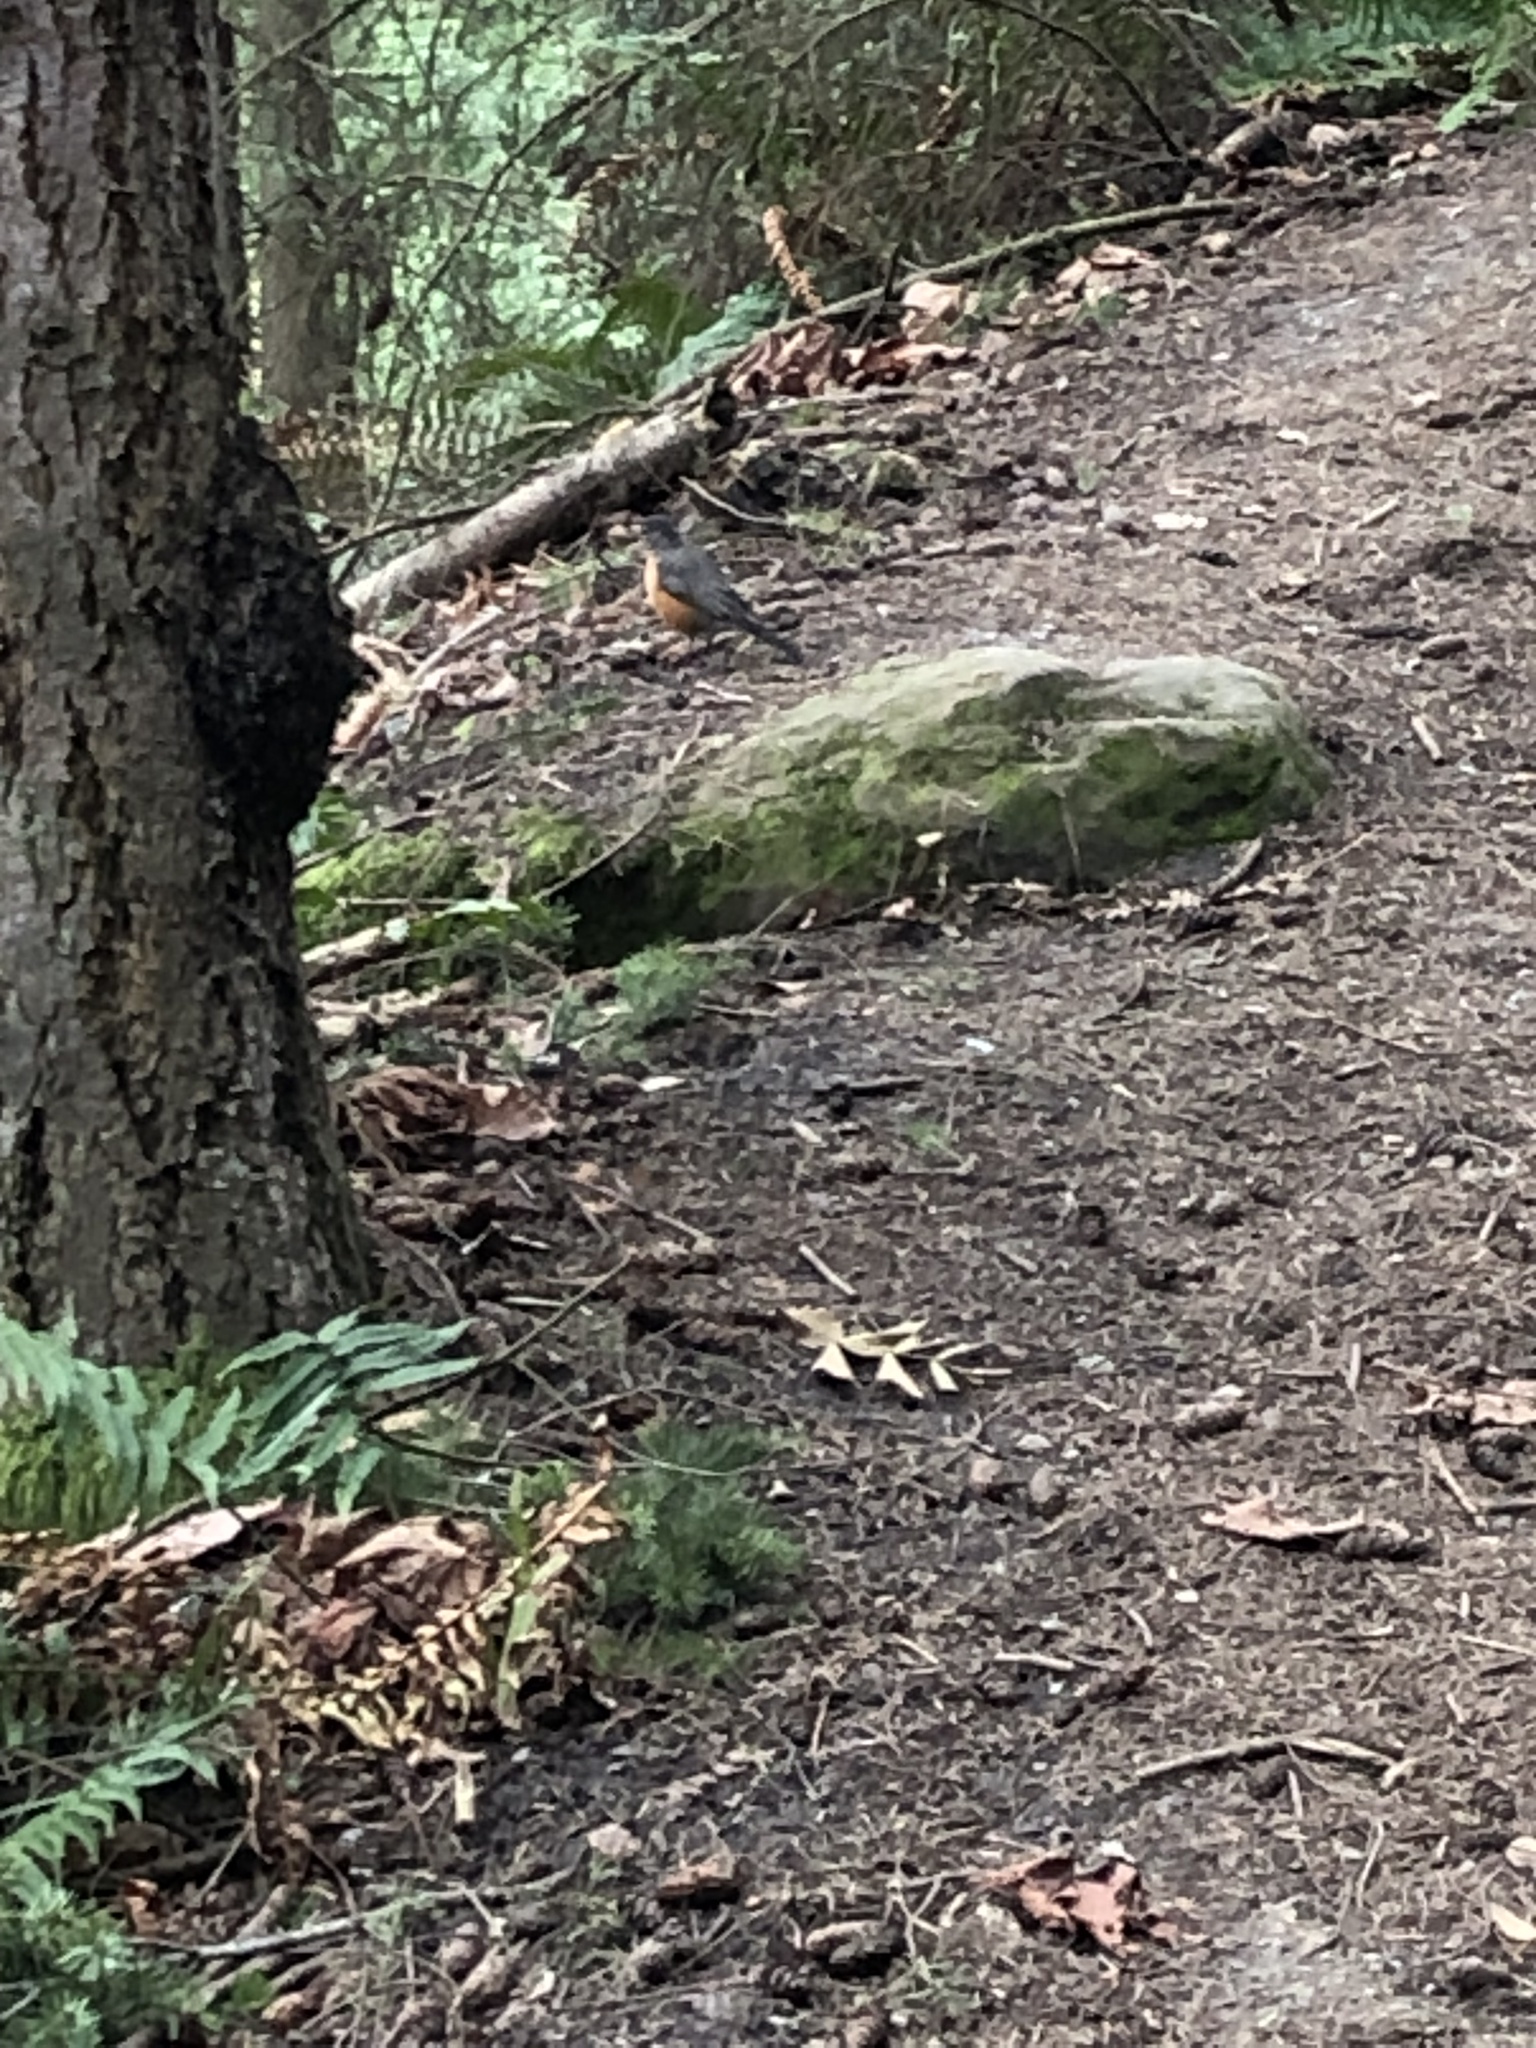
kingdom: Animalia
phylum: Chordata
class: Aves
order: Passeriformes
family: Turdidae
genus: Turdus
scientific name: Turdus migratorius
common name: American robin
